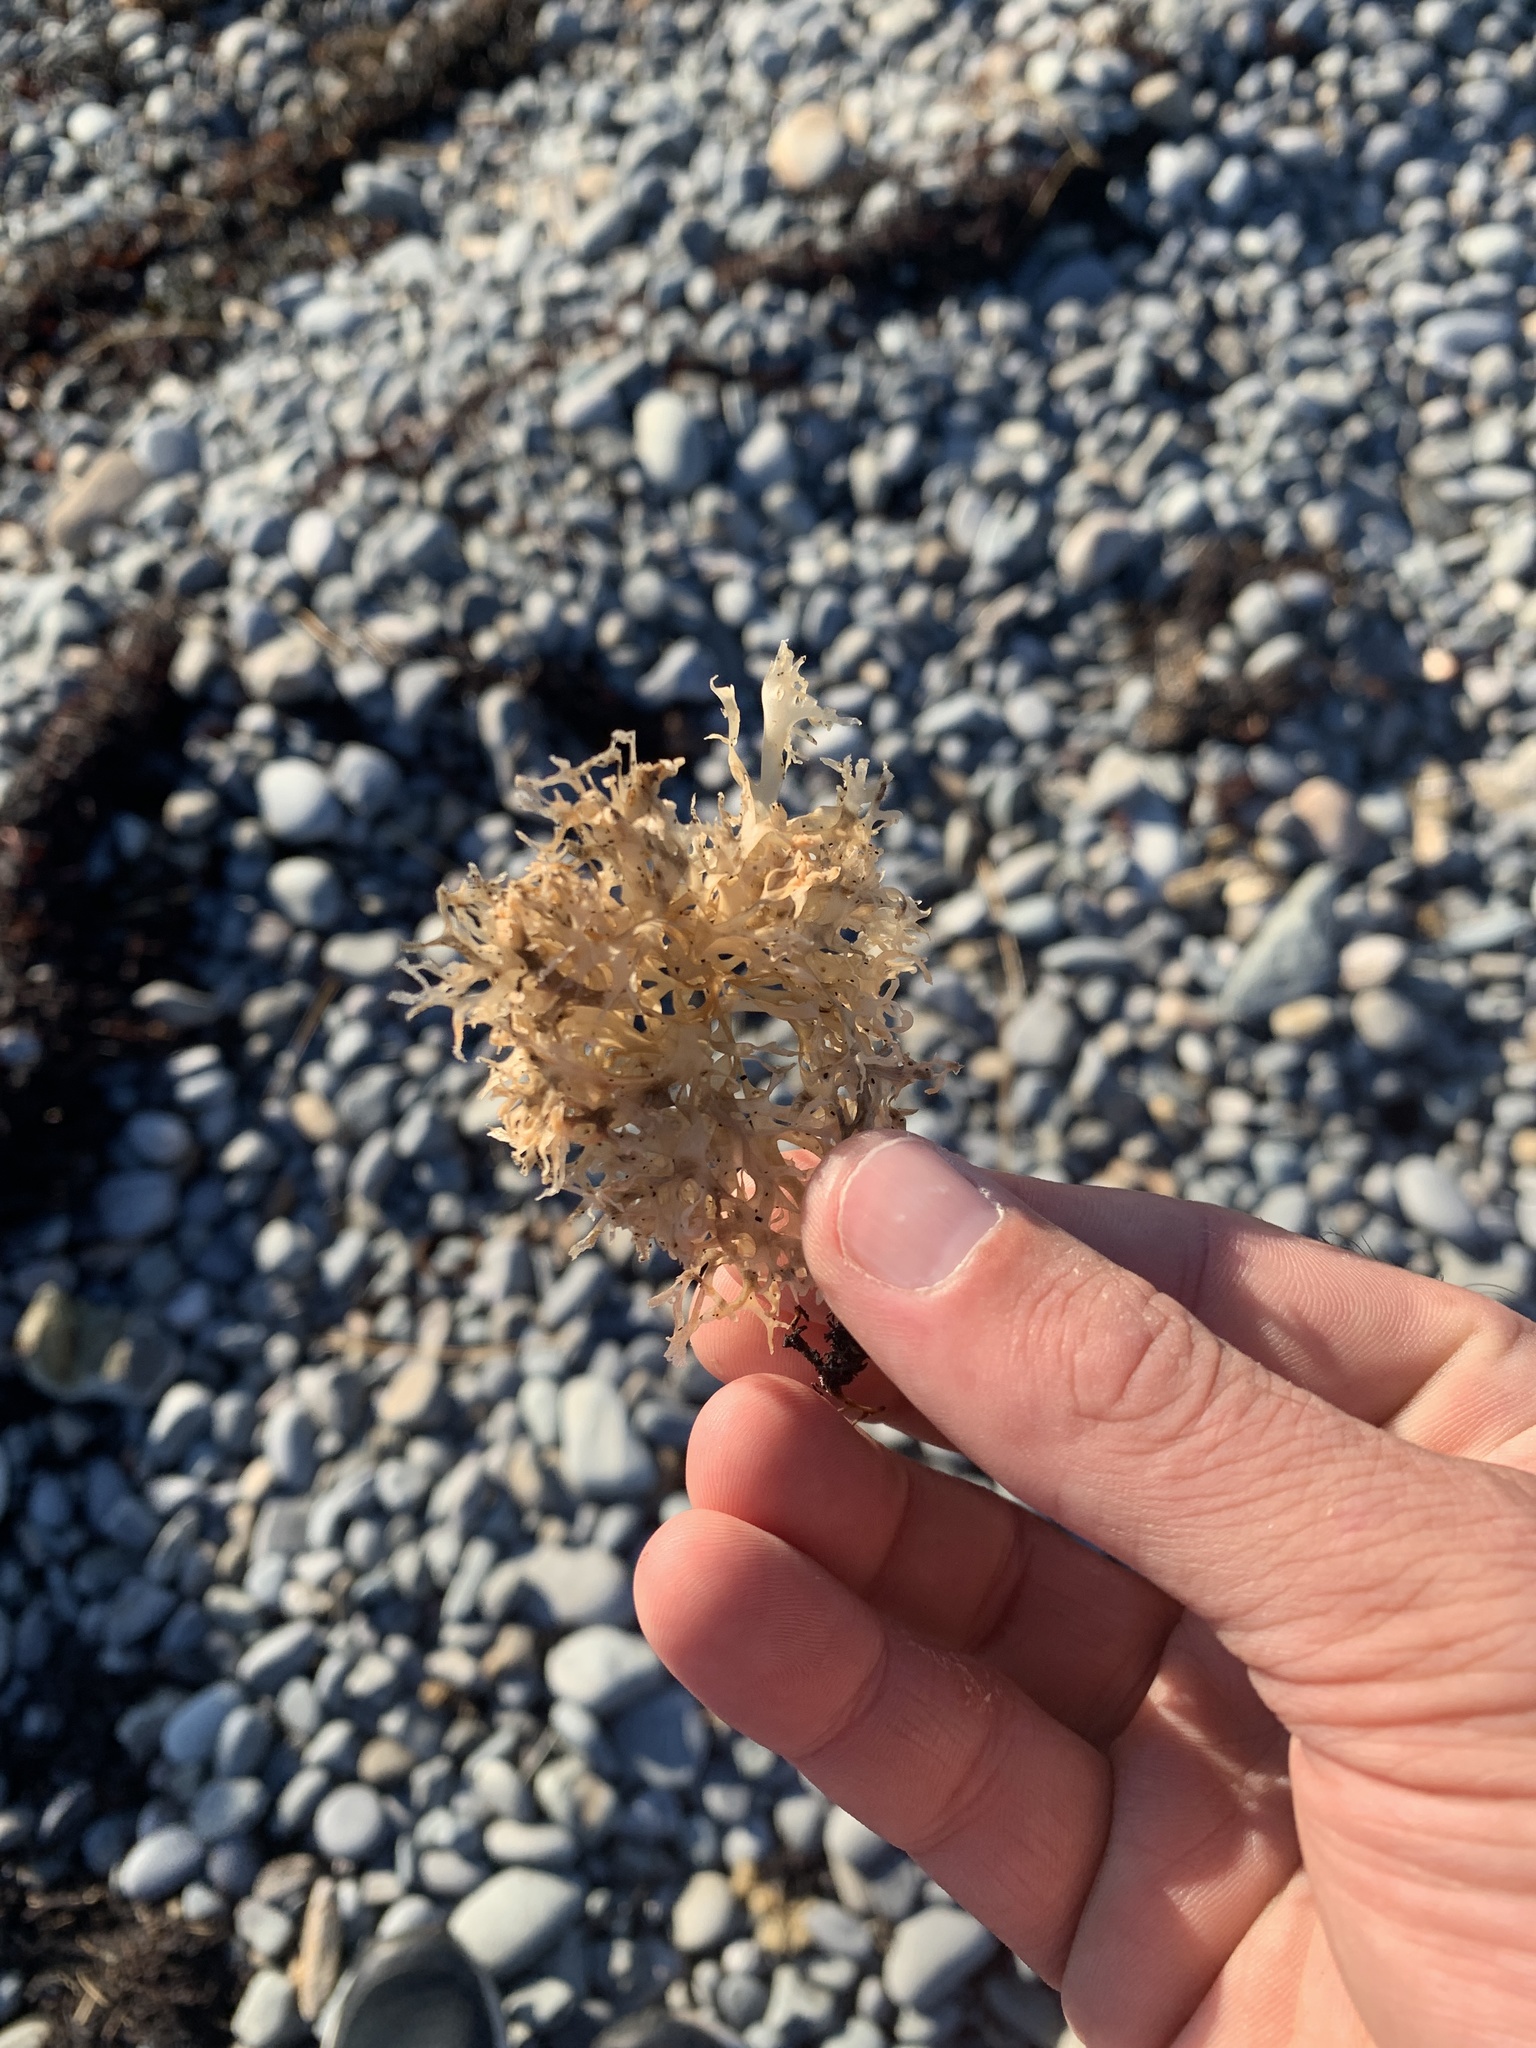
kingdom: Plantae
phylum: Rhodophyta
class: Florideophyceae
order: Gigartinales
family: Gigartinaceae
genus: Chondrus
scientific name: Chondrus crispus
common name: Carrageen
